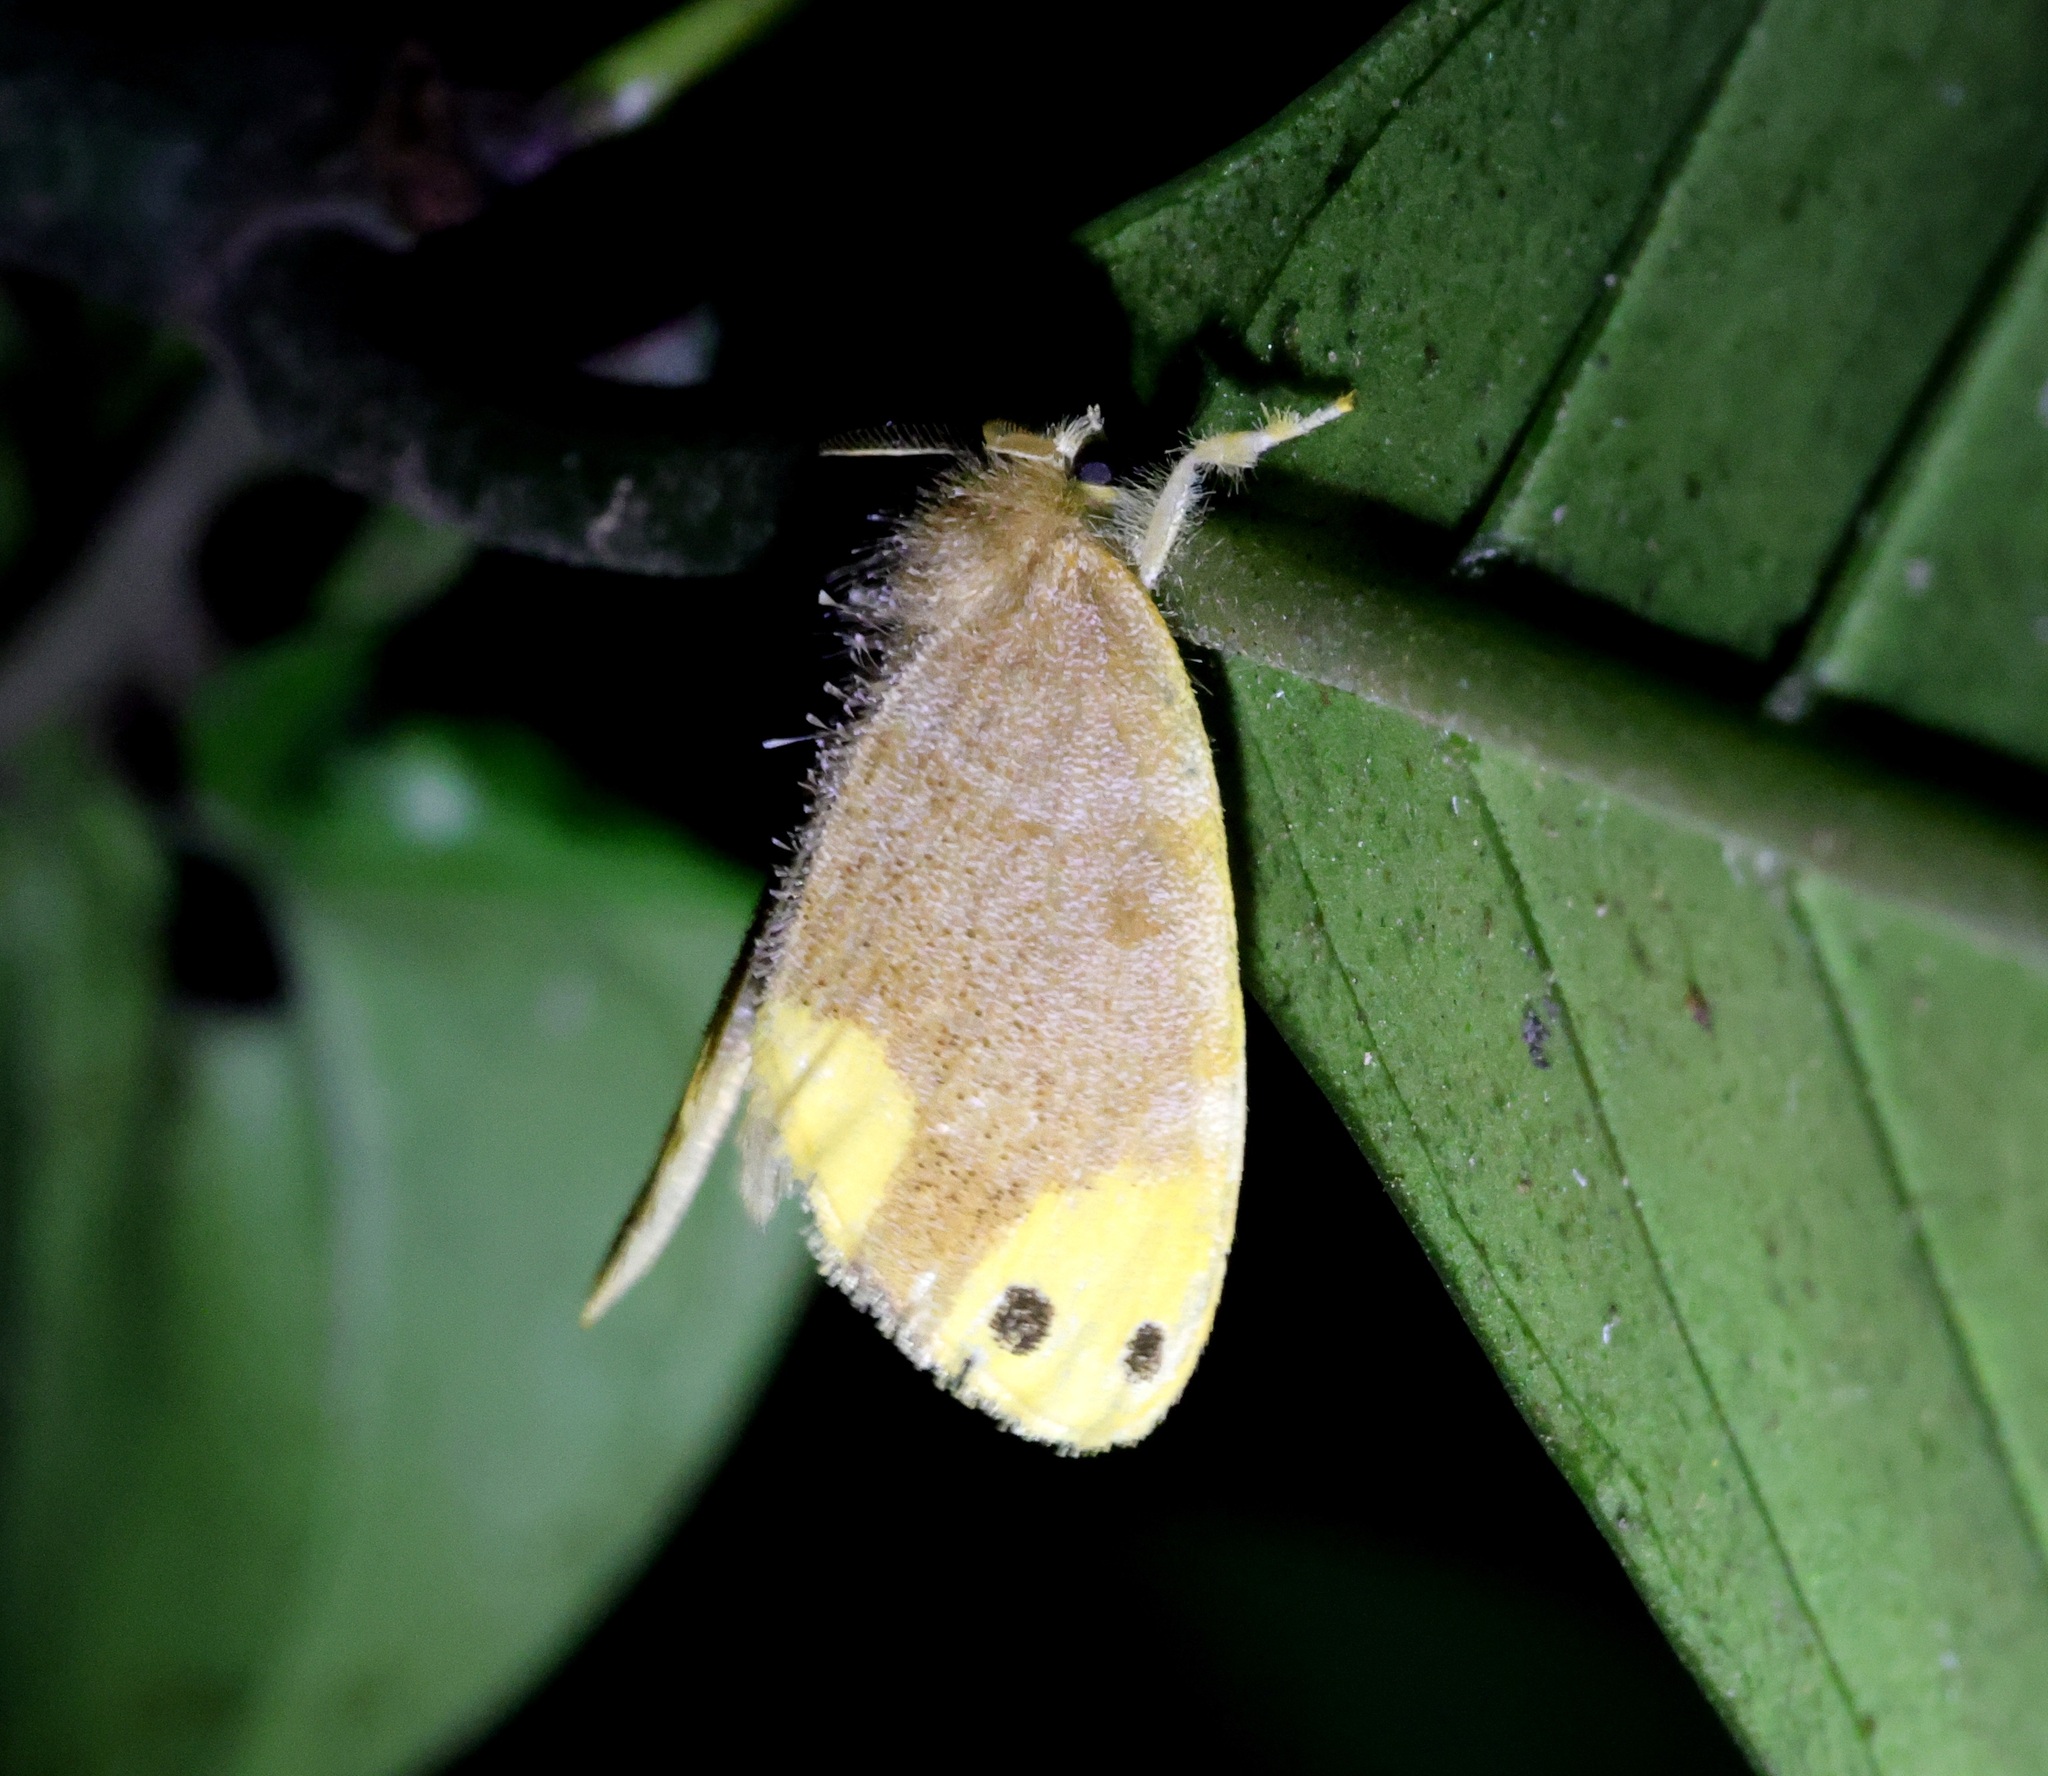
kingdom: Animalia
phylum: Arthropoda
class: Insecta
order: Lepidoptera
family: Erebidae
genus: Arna
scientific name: Arna bipunctapex
